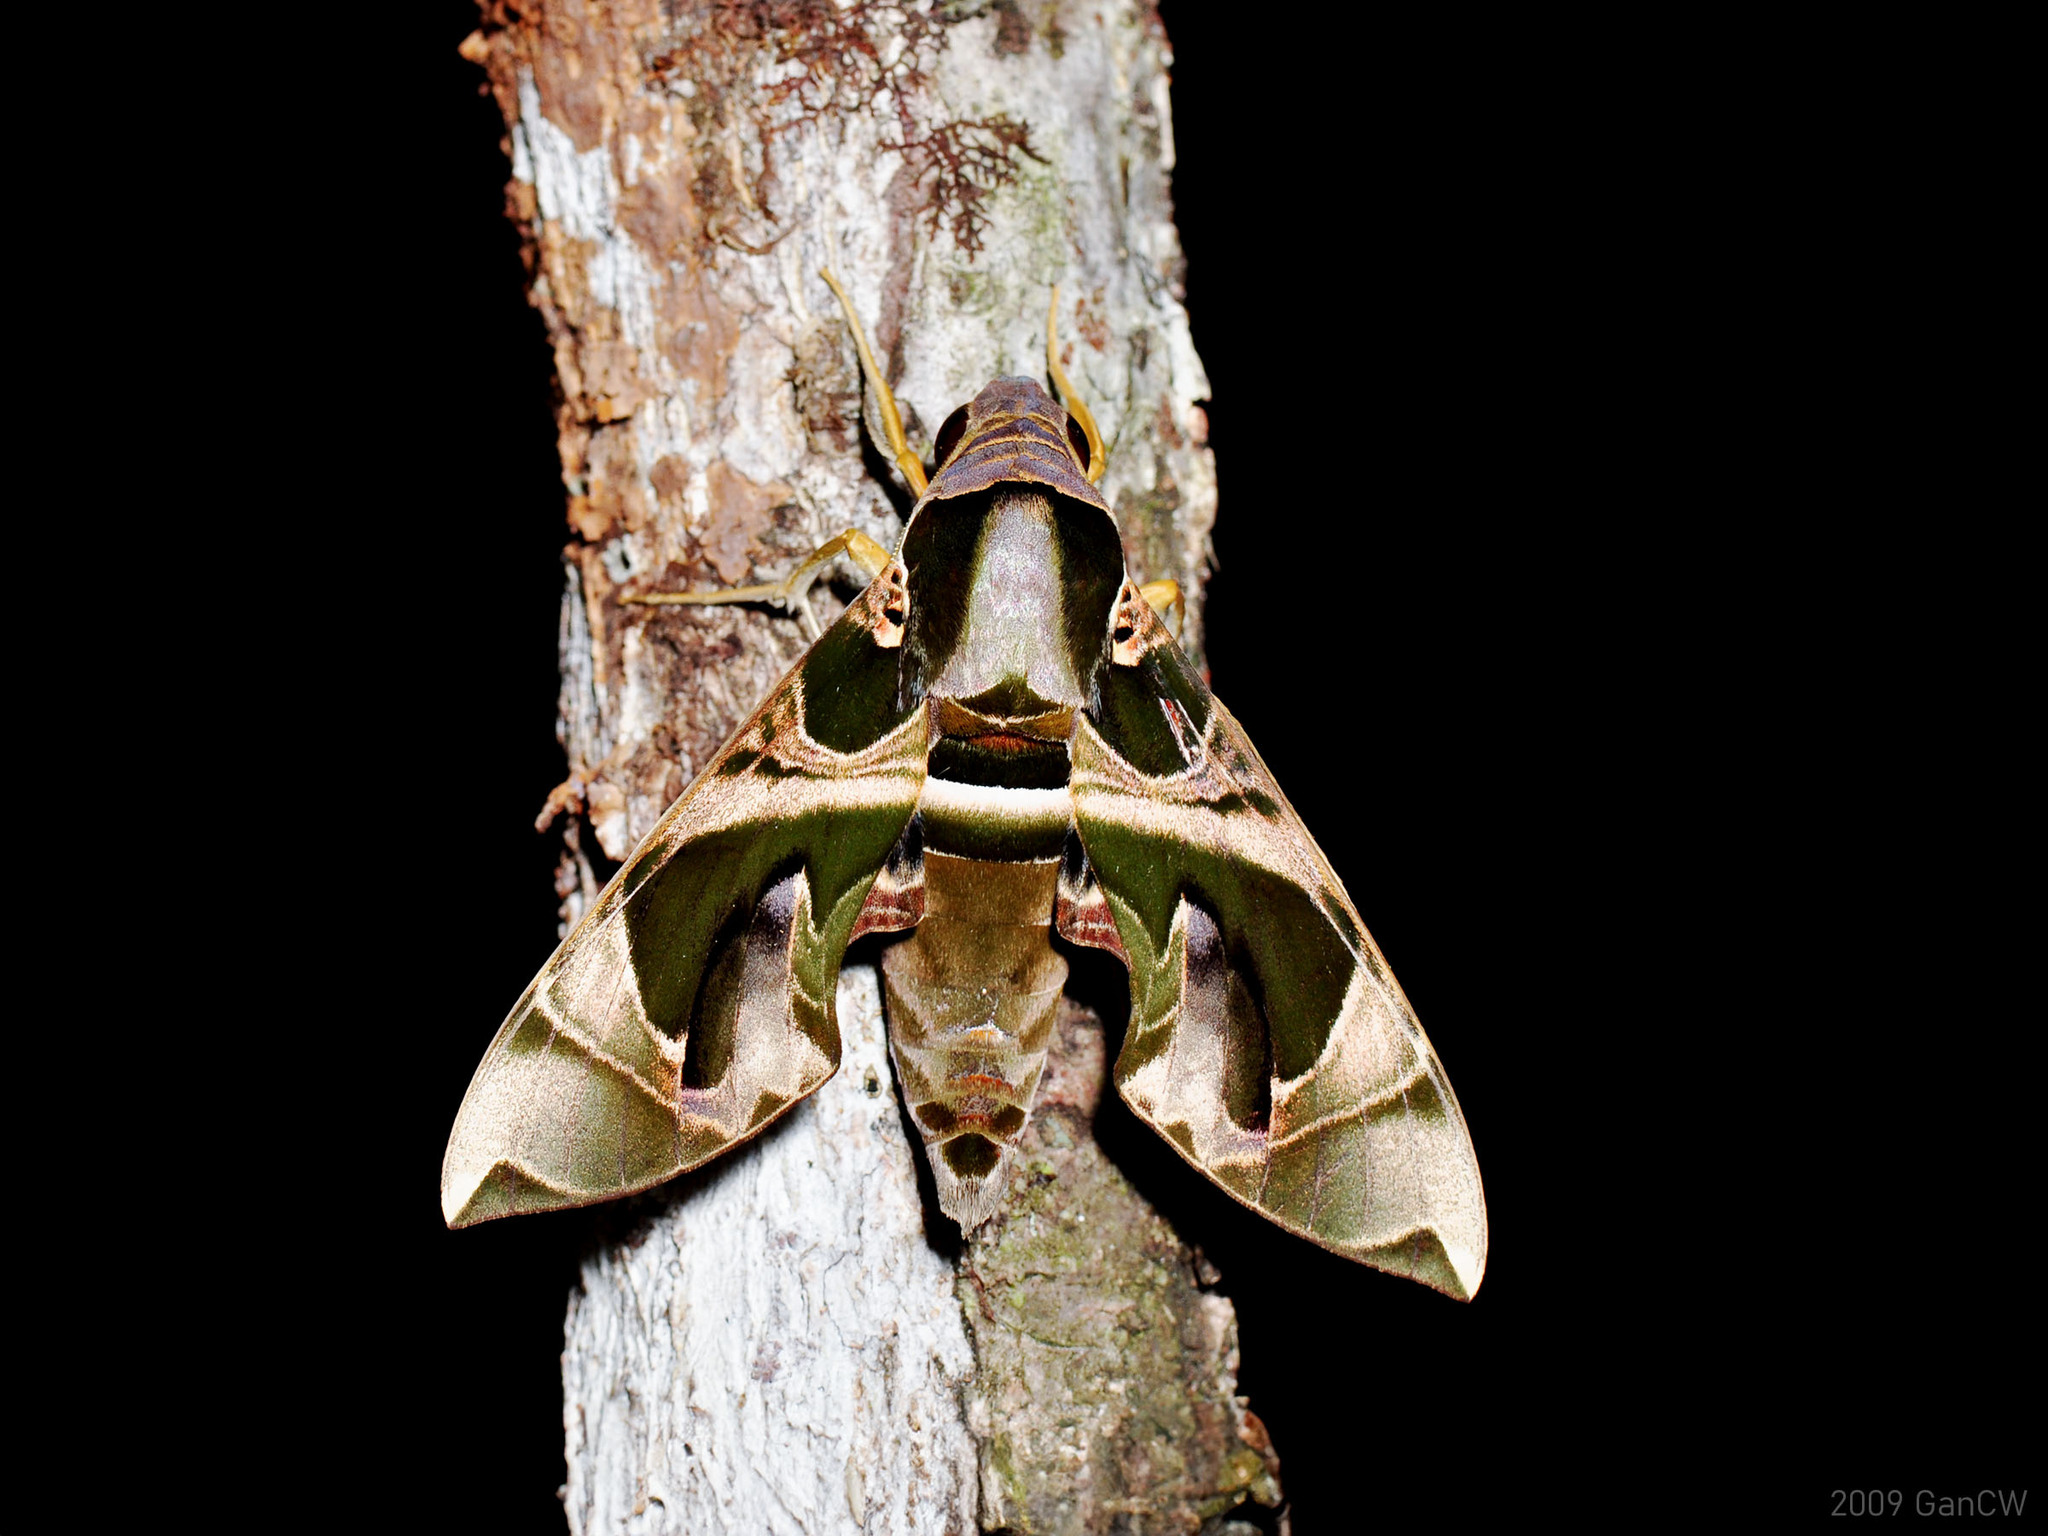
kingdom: Animalia
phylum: Arthropoda
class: Insecta
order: Lepidoptera
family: Sphingidae
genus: Daphnis
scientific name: Daphnis hypothous
